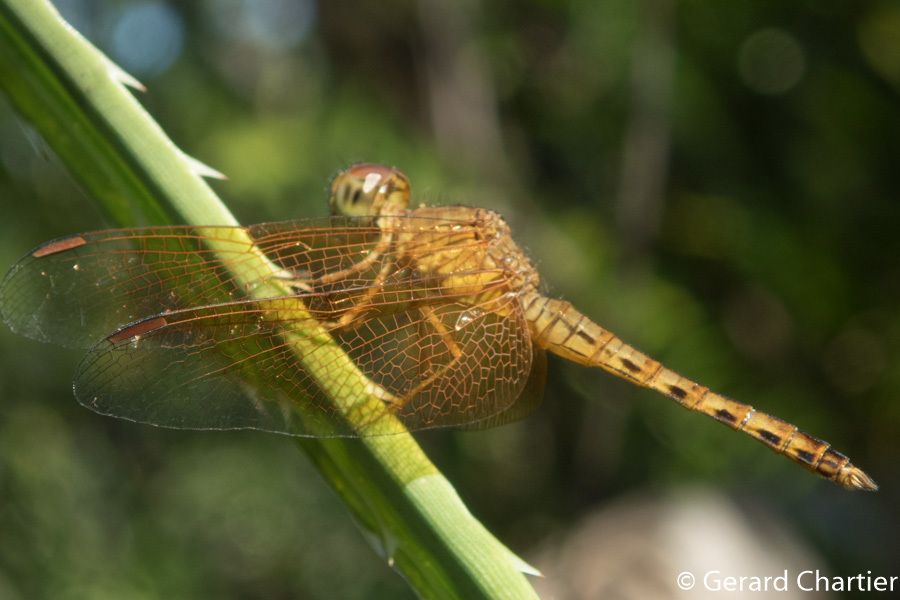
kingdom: Animalia
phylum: Arthropoda
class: Insecta
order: Odonata
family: Libellulidae
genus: Neurothemis
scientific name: Neurothemis fluctuans
